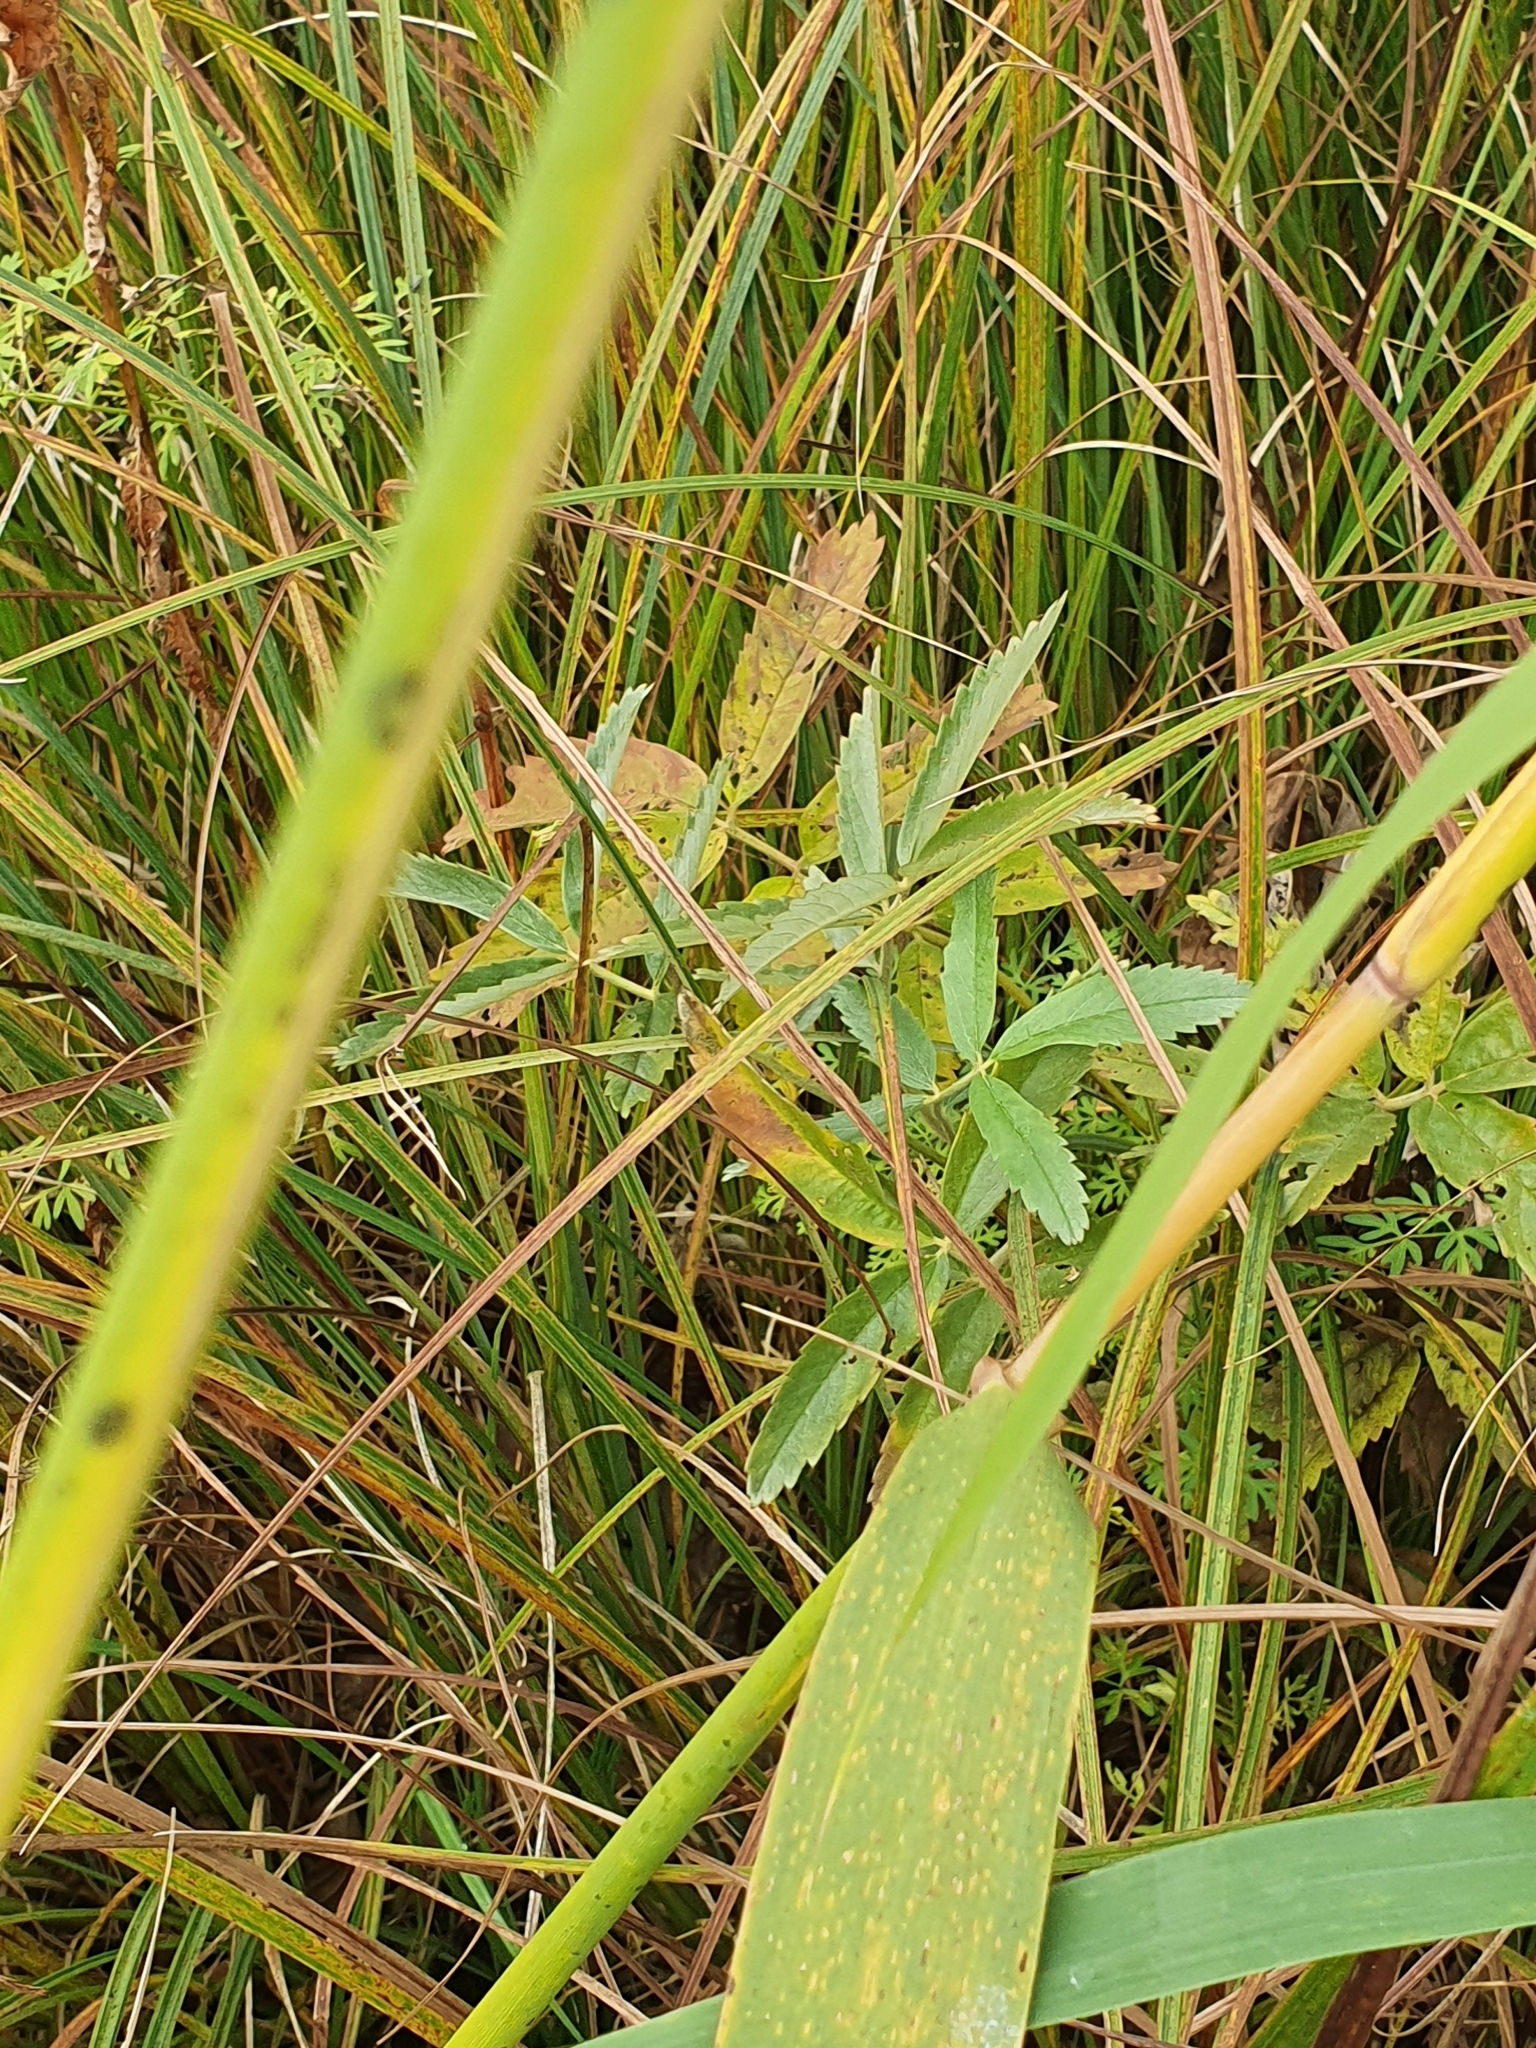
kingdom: Plantae
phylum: Tracheophyta
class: Magnoliopsida
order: Rosales
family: Rosaceae
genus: Comarum
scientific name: Comarum palustre
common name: Marsh cinquefoil
